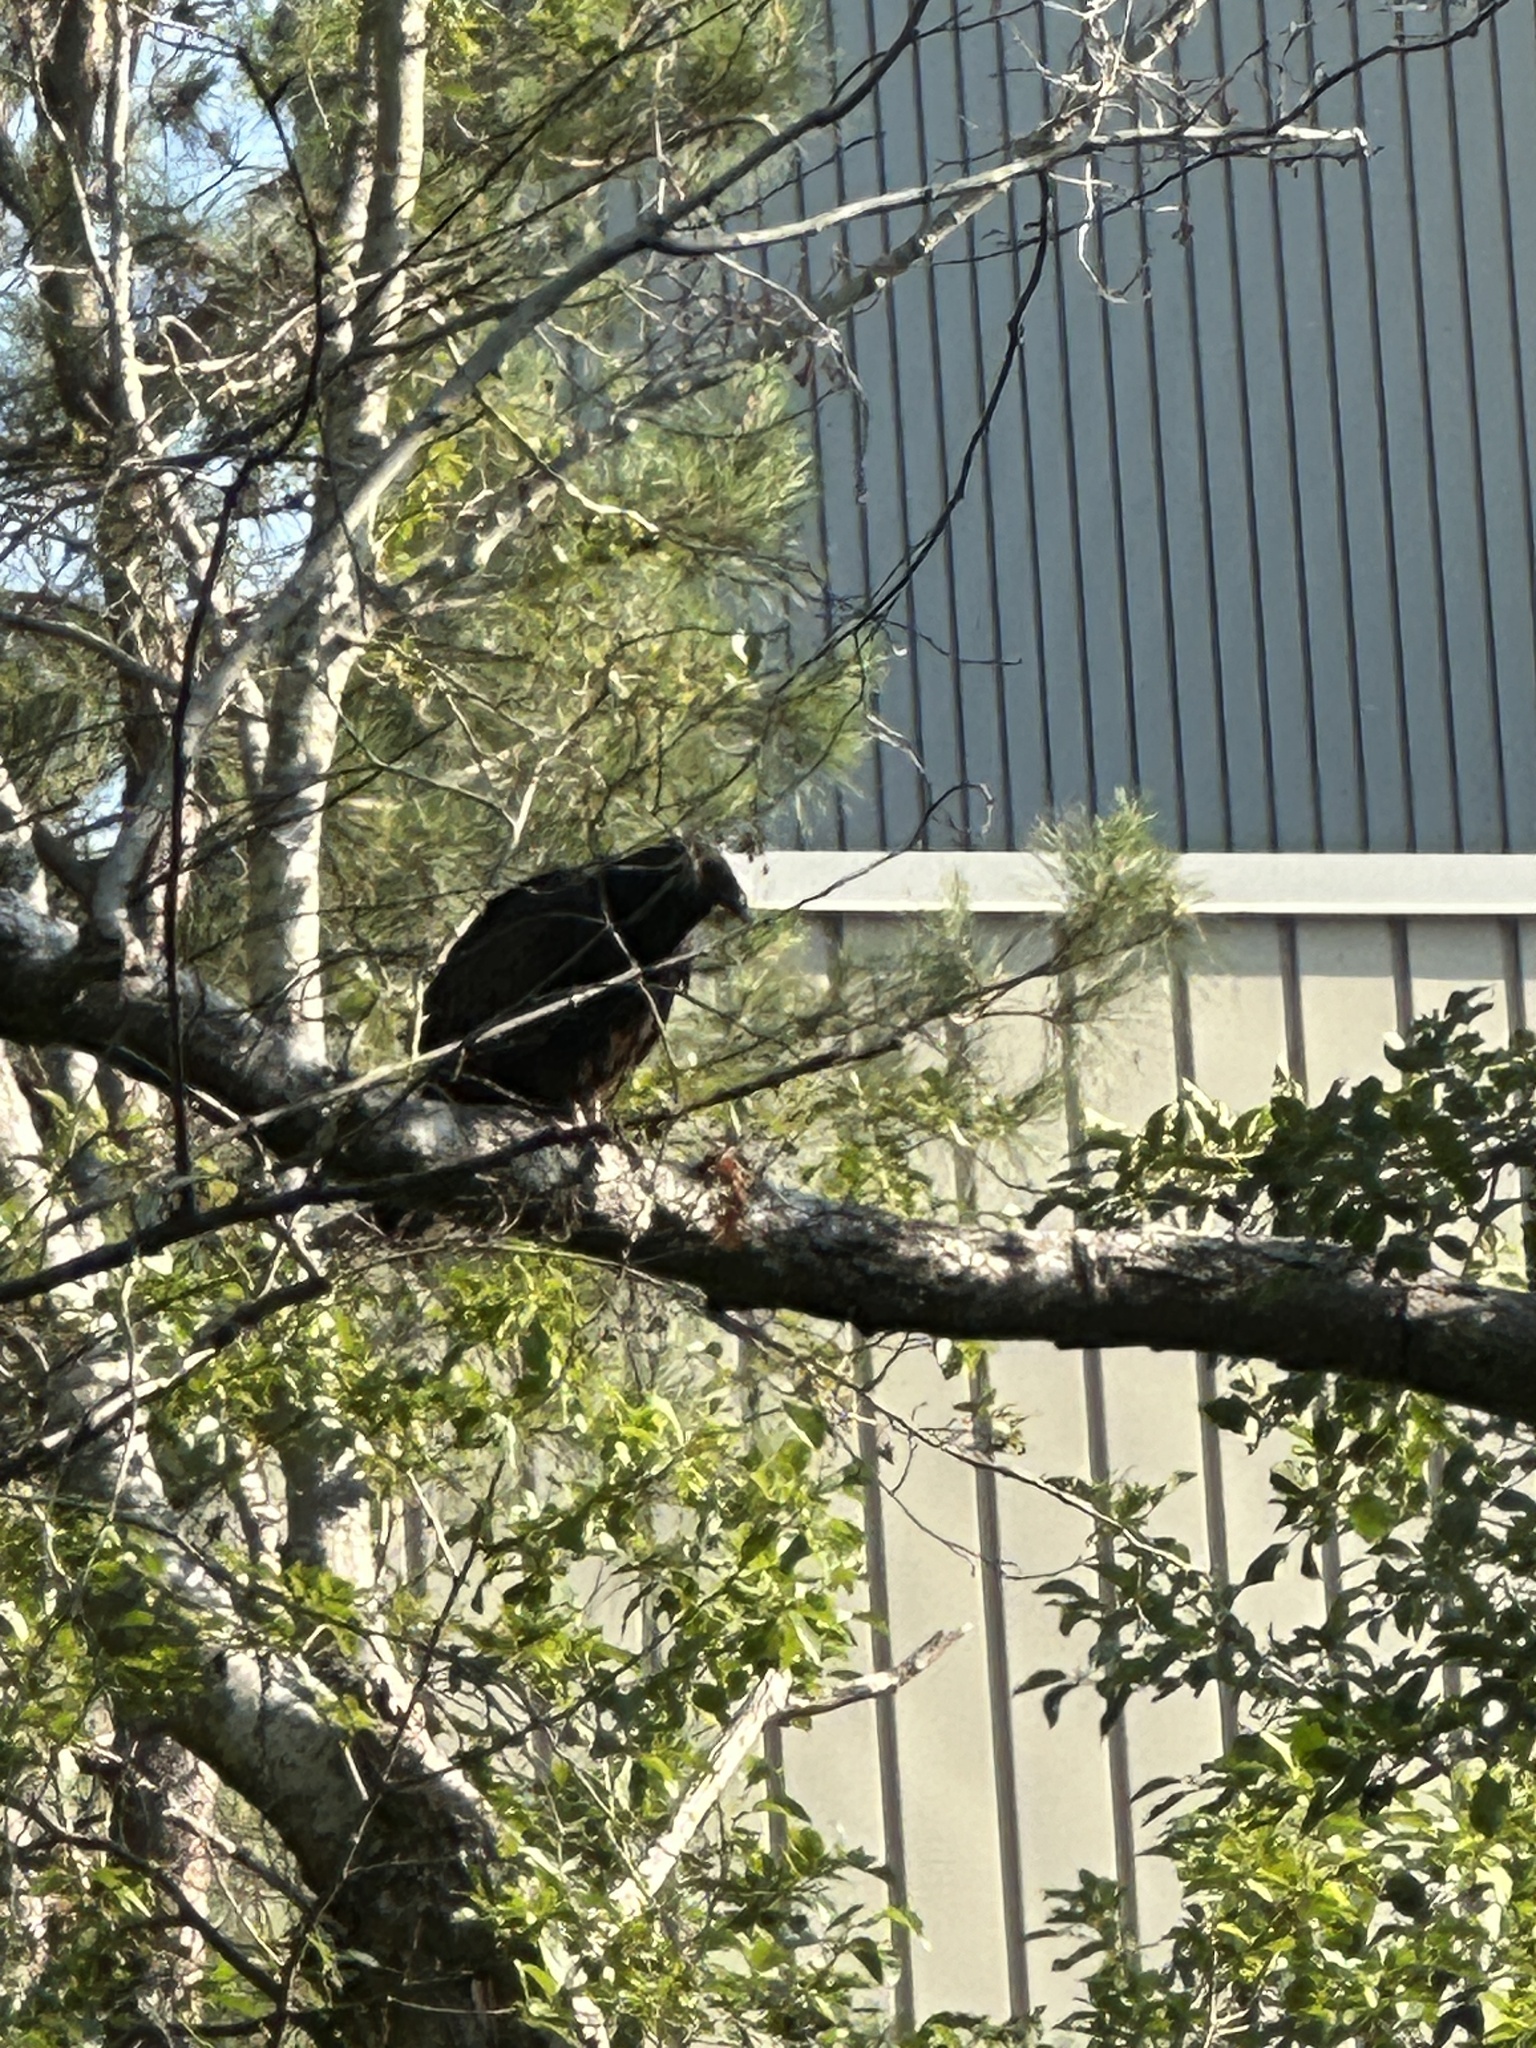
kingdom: Animalia
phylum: Chordata
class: Aves
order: Accipitriformes
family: Cathartidae
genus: Cathartes
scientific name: Cathartes aura
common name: Turkey vulture
